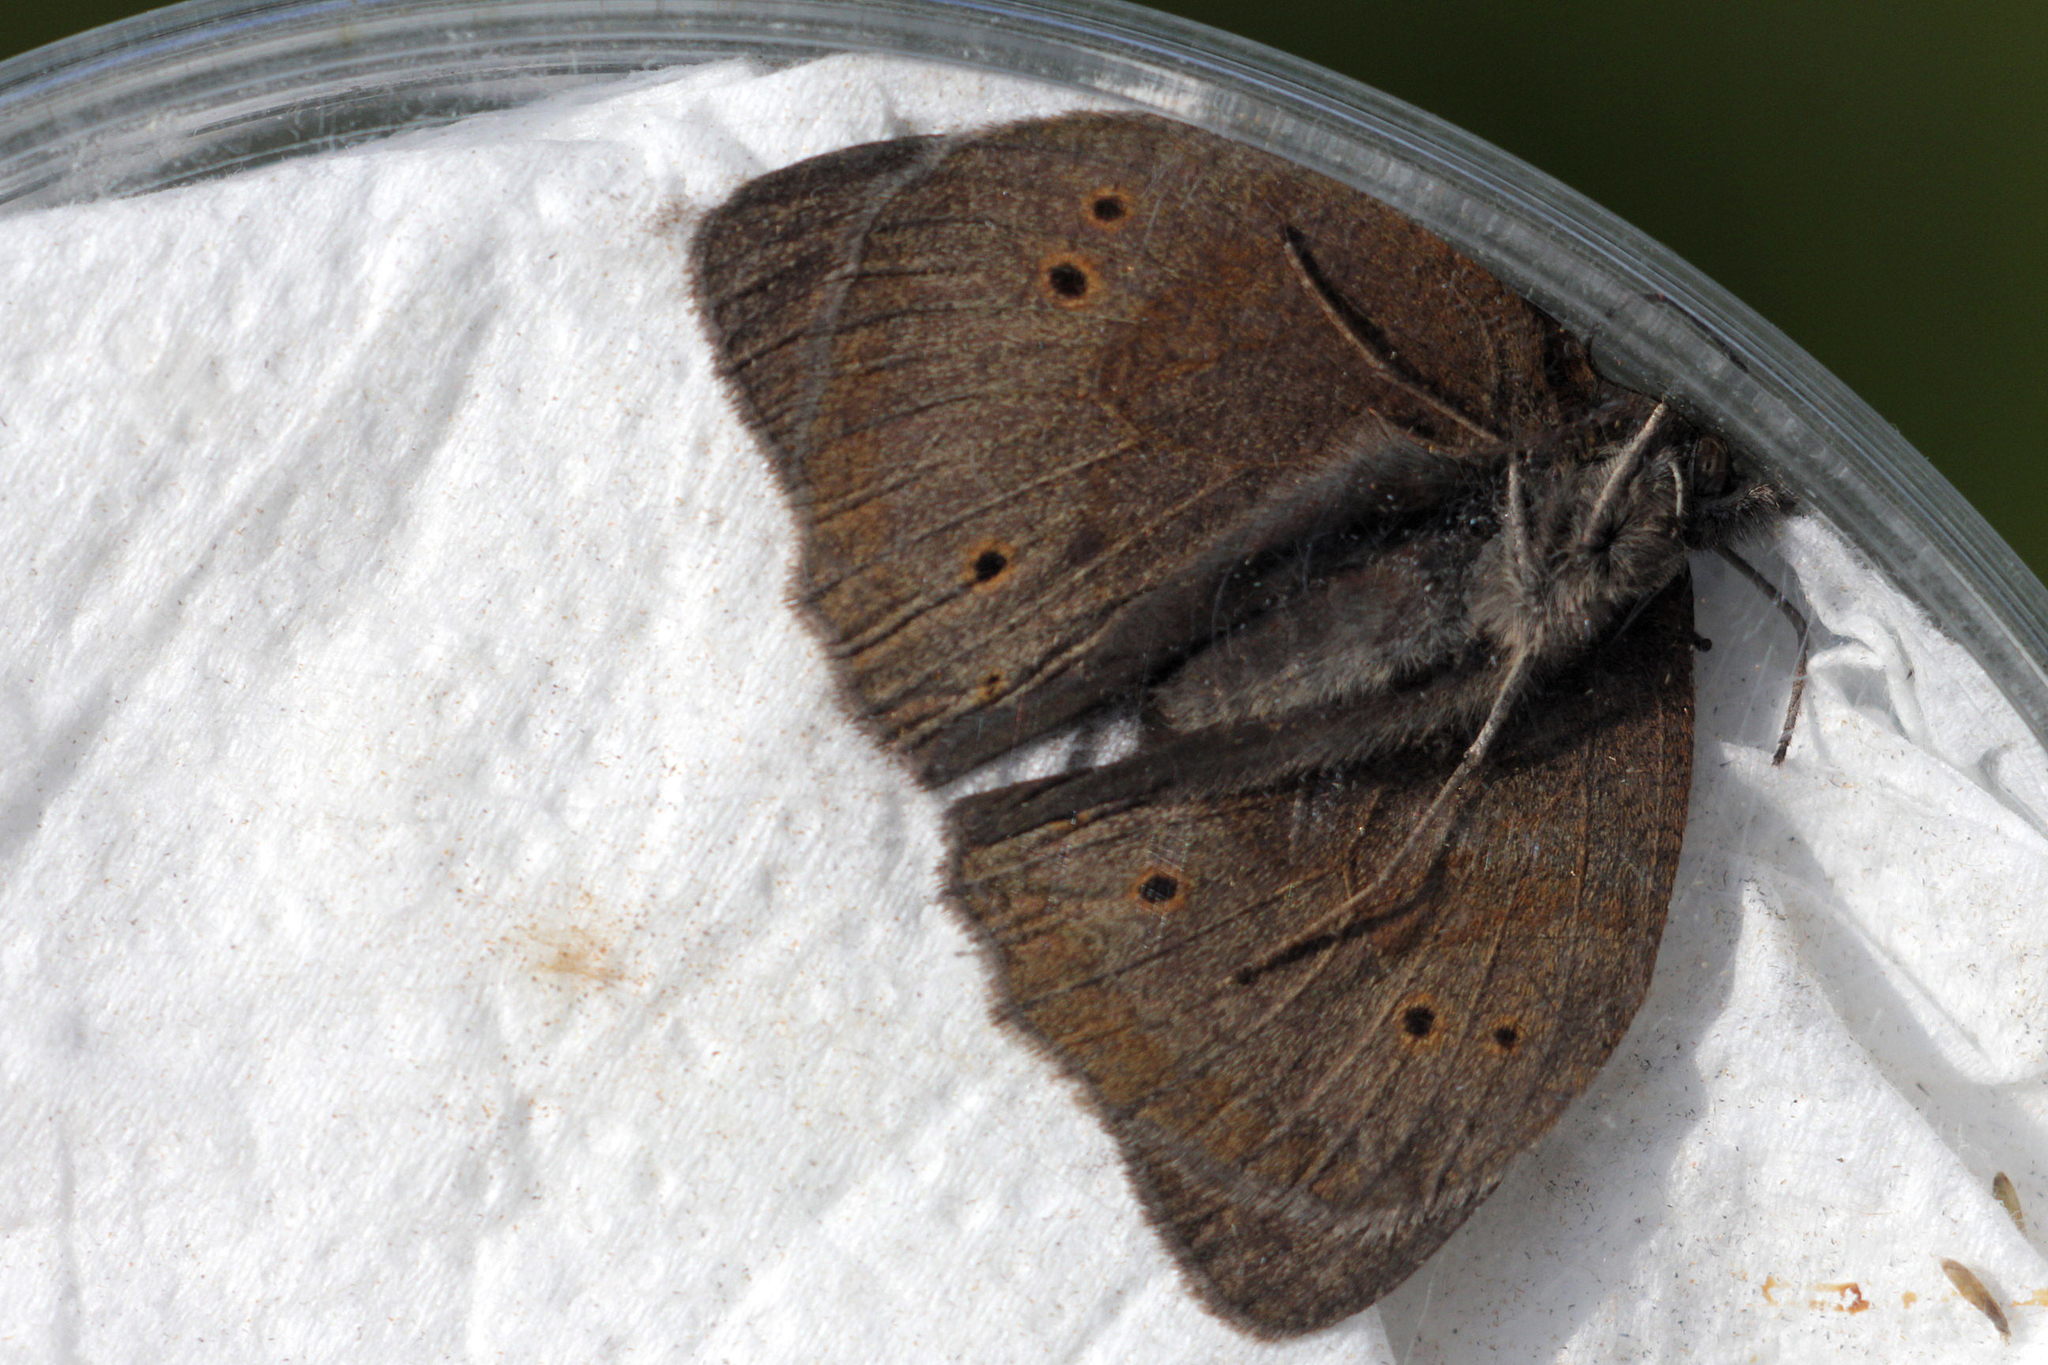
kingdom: Animalia
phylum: Arthropoda
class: Insecta
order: Lepidoptera
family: Nymphalidae
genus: Maniola
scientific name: Maniola jurtina
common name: Meadow brown
